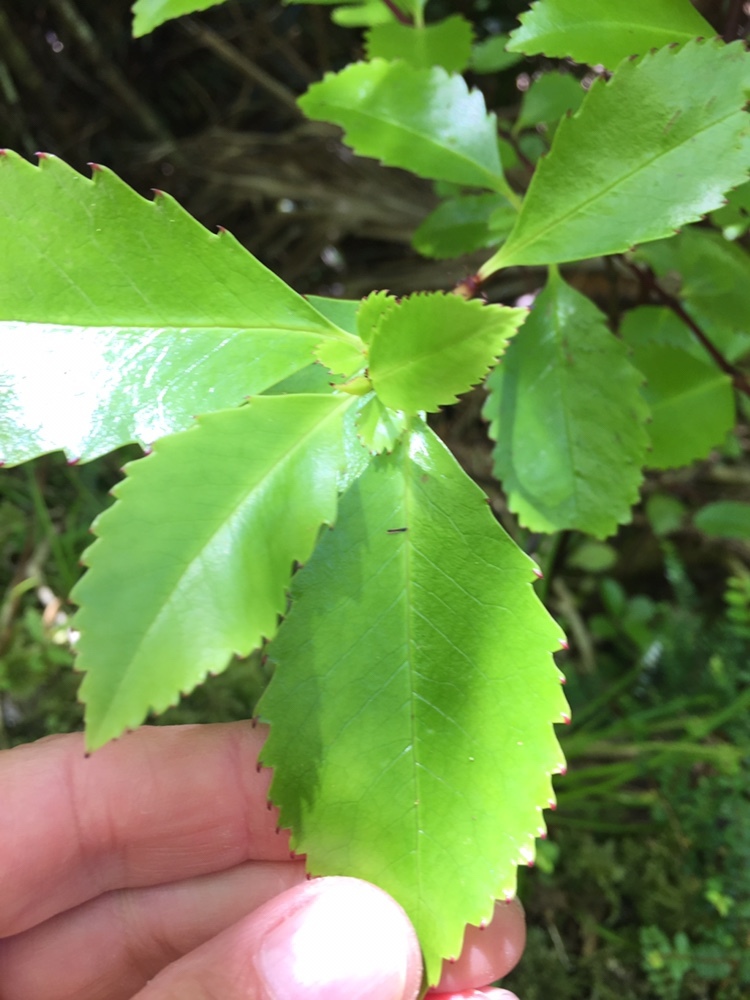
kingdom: Plantae
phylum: Tracheophyta
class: Magnoliopsida
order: Chloranthales
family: Chloranthaceae
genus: Ascarina
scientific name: Ascarina lucida
